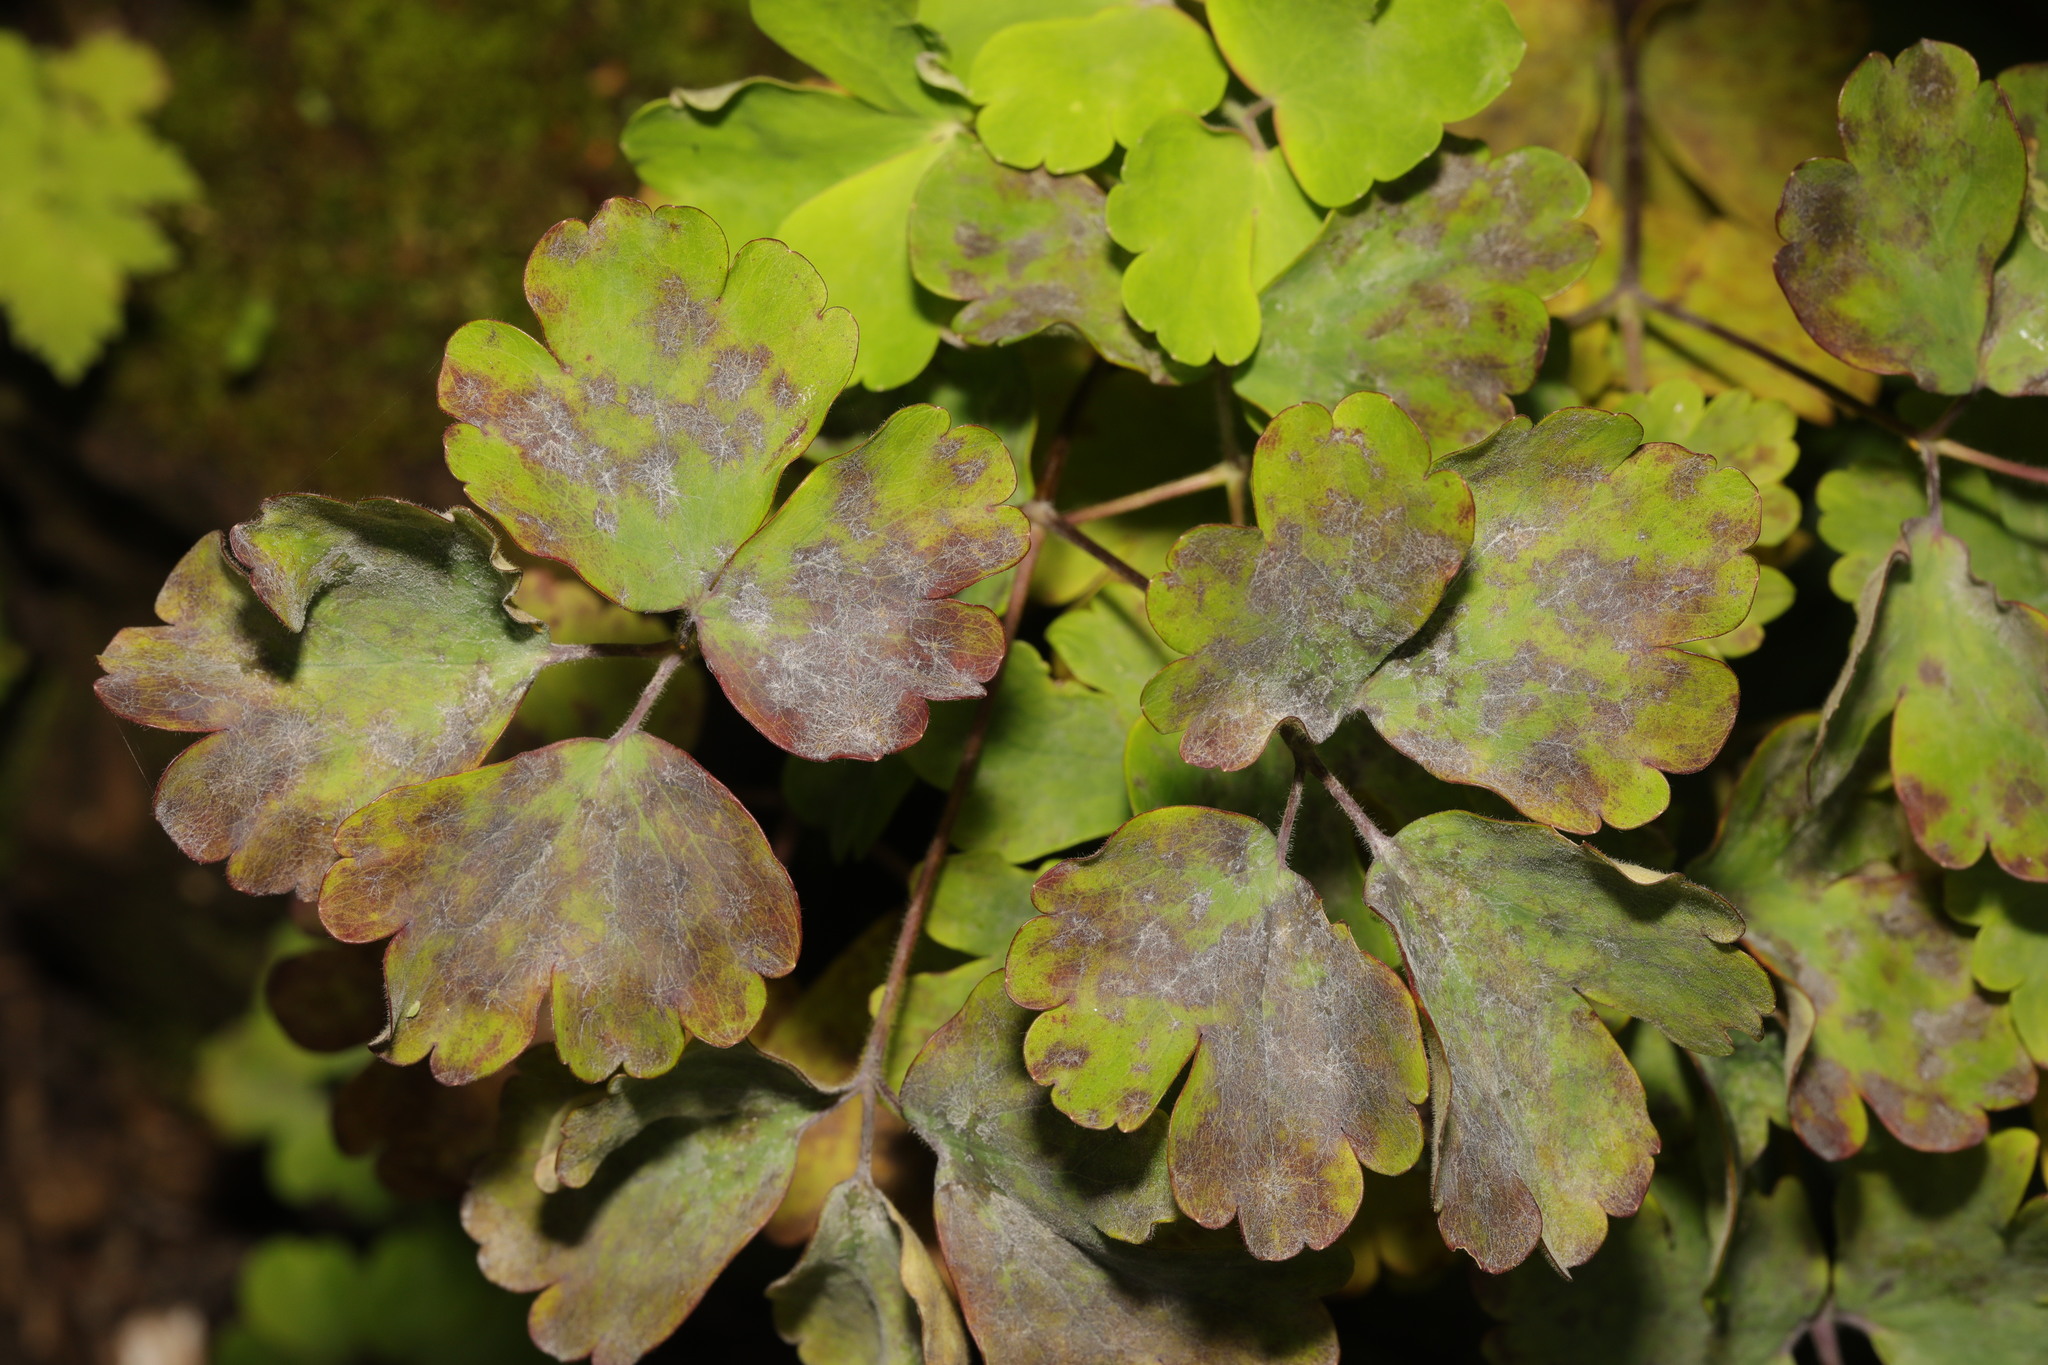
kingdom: Fungi
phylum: Ascomycota
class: Leotiomycetes
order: Helotiales
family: Erysiphaceae
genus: Erysiphe
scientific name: Erysiphe aquilegiae
